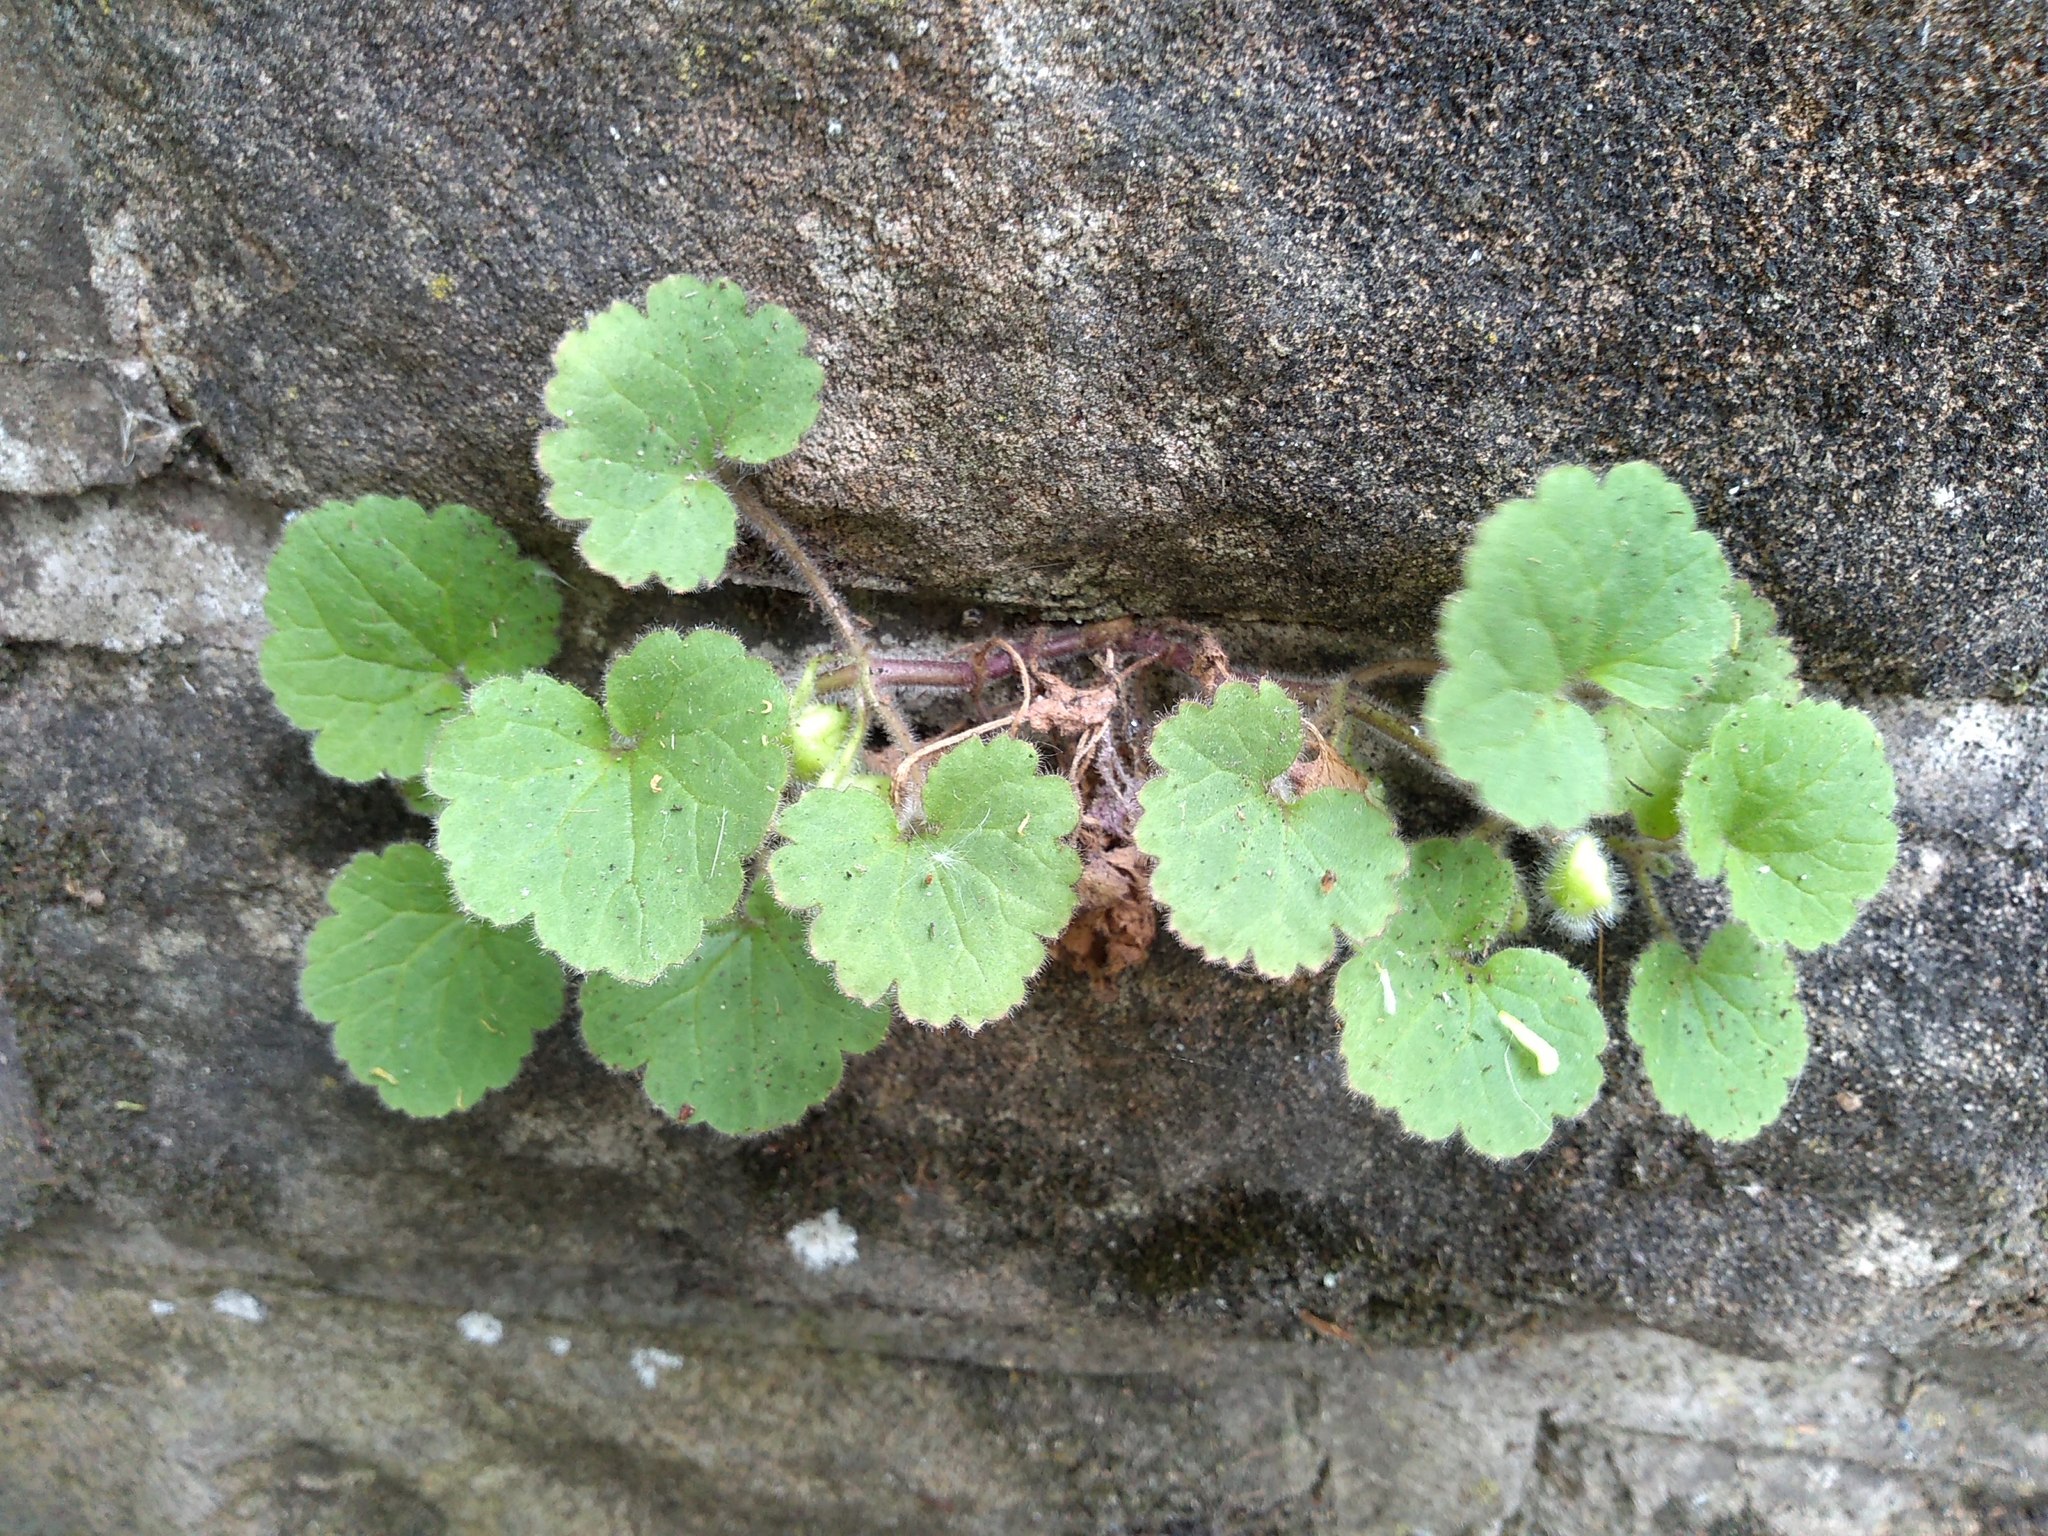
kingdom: Plantae
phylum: Tracheophyta
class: Magnoliopsida
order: Lamiales
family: Plantaginaceae
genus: Asarina
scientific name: Asarina procumbens
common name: Trailing snapdragon
